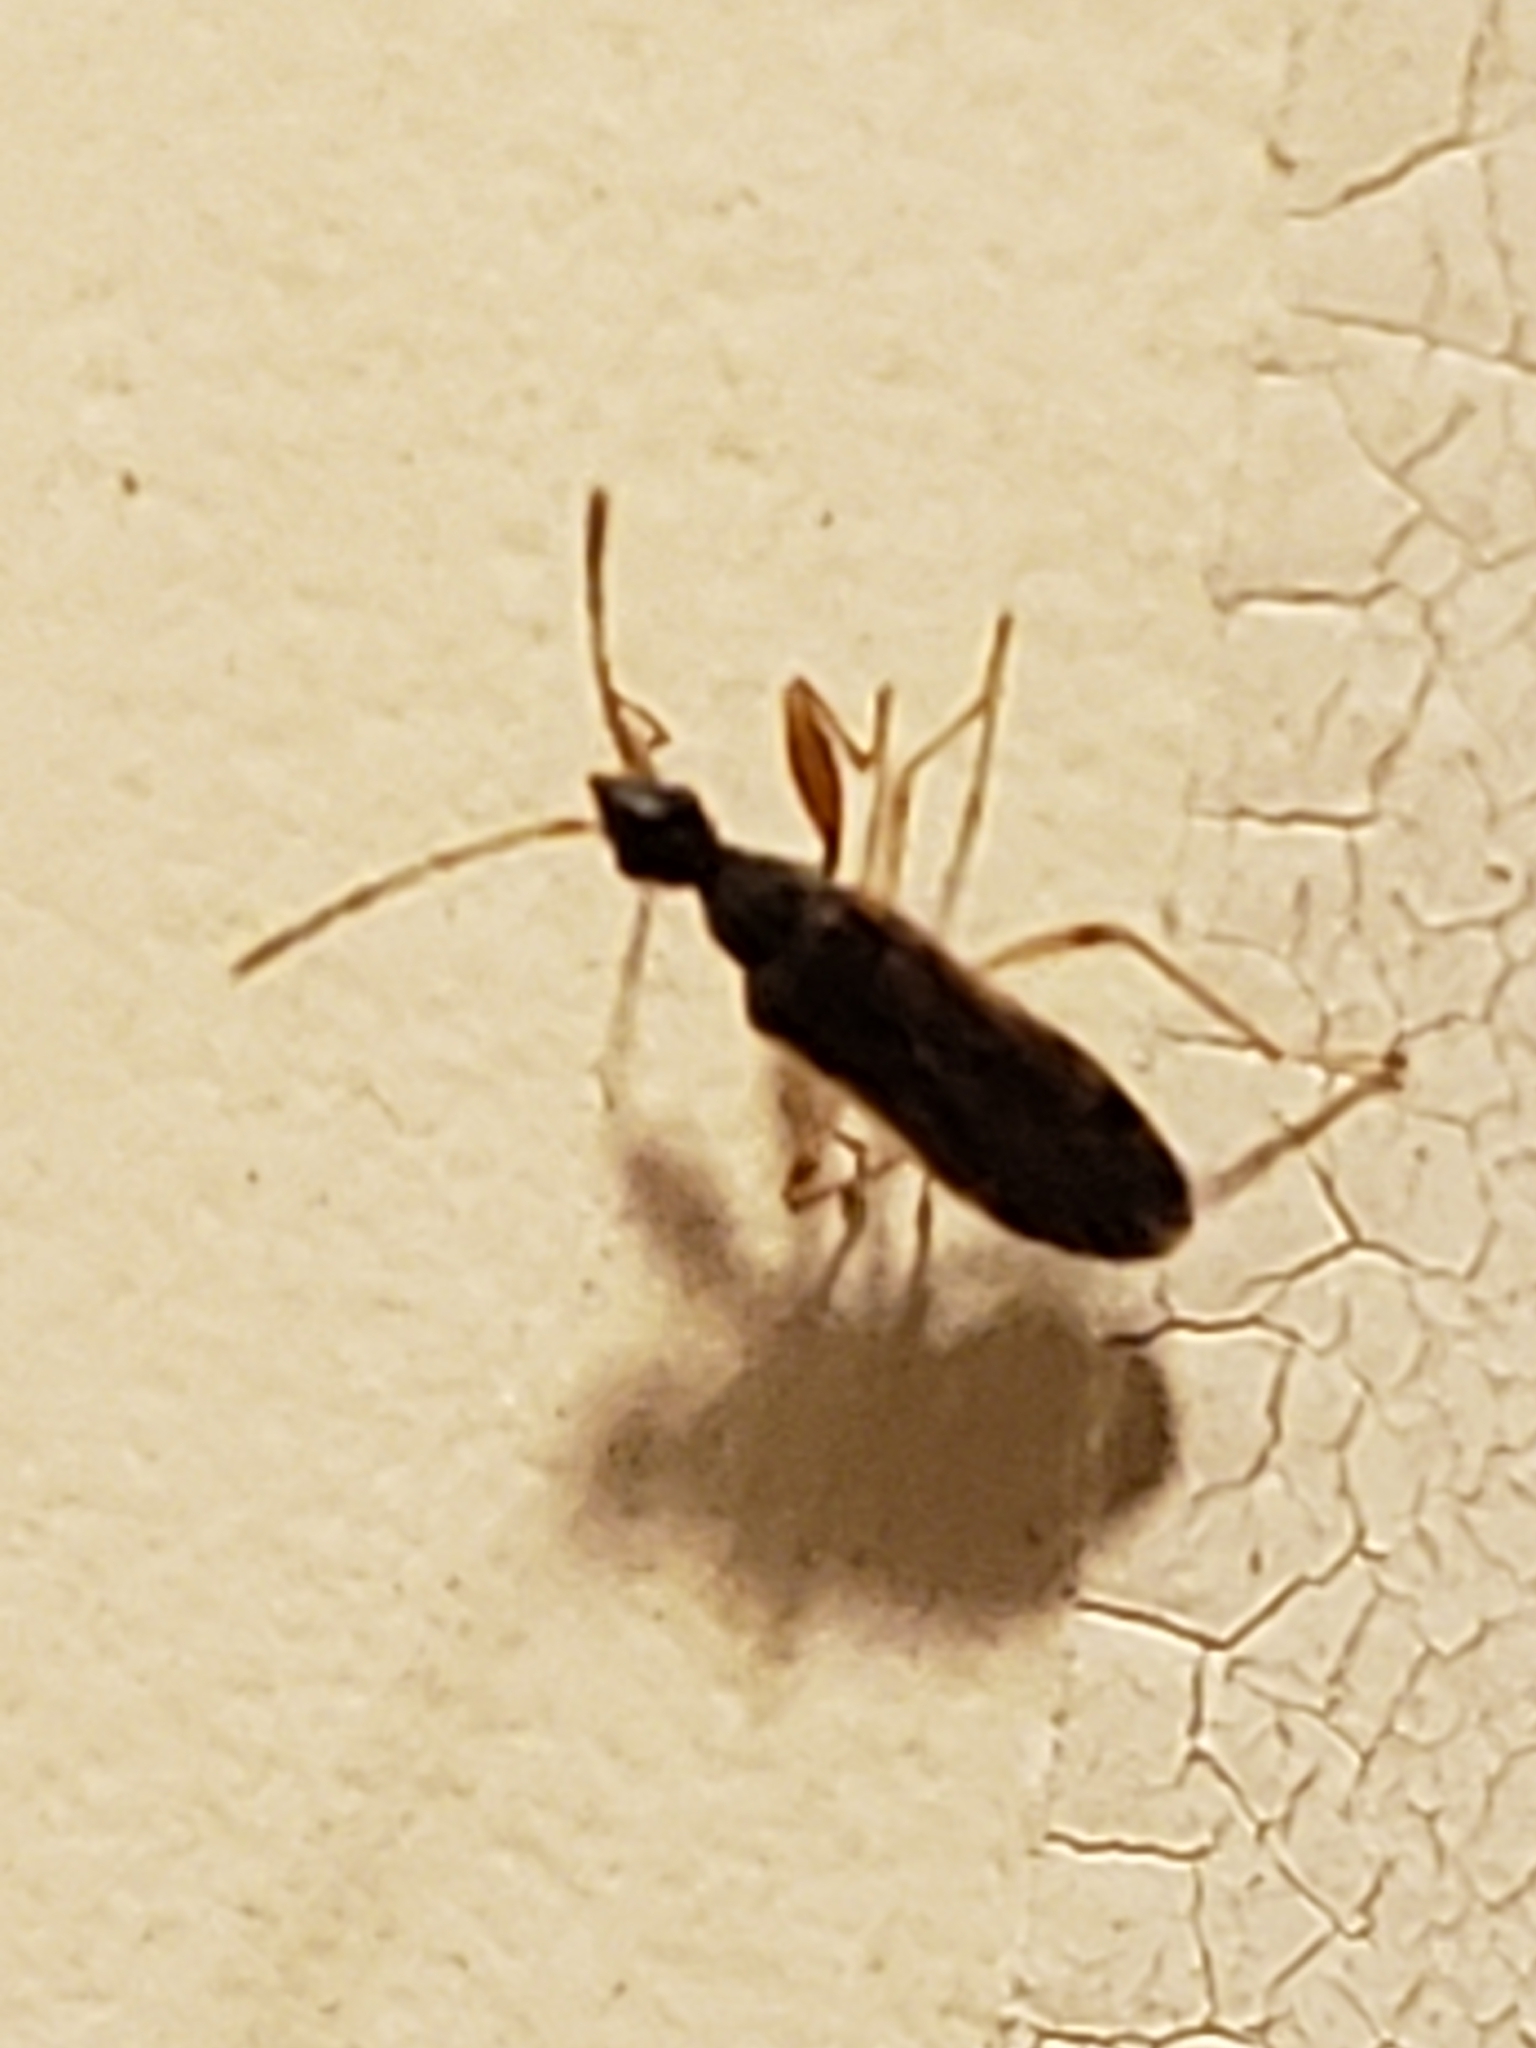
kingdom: Animalia
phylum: Arthropoda
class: Insecta
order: Hemiptera
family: Rhyparochromidae
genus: Heraeus
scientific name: Heraeus plebejus
